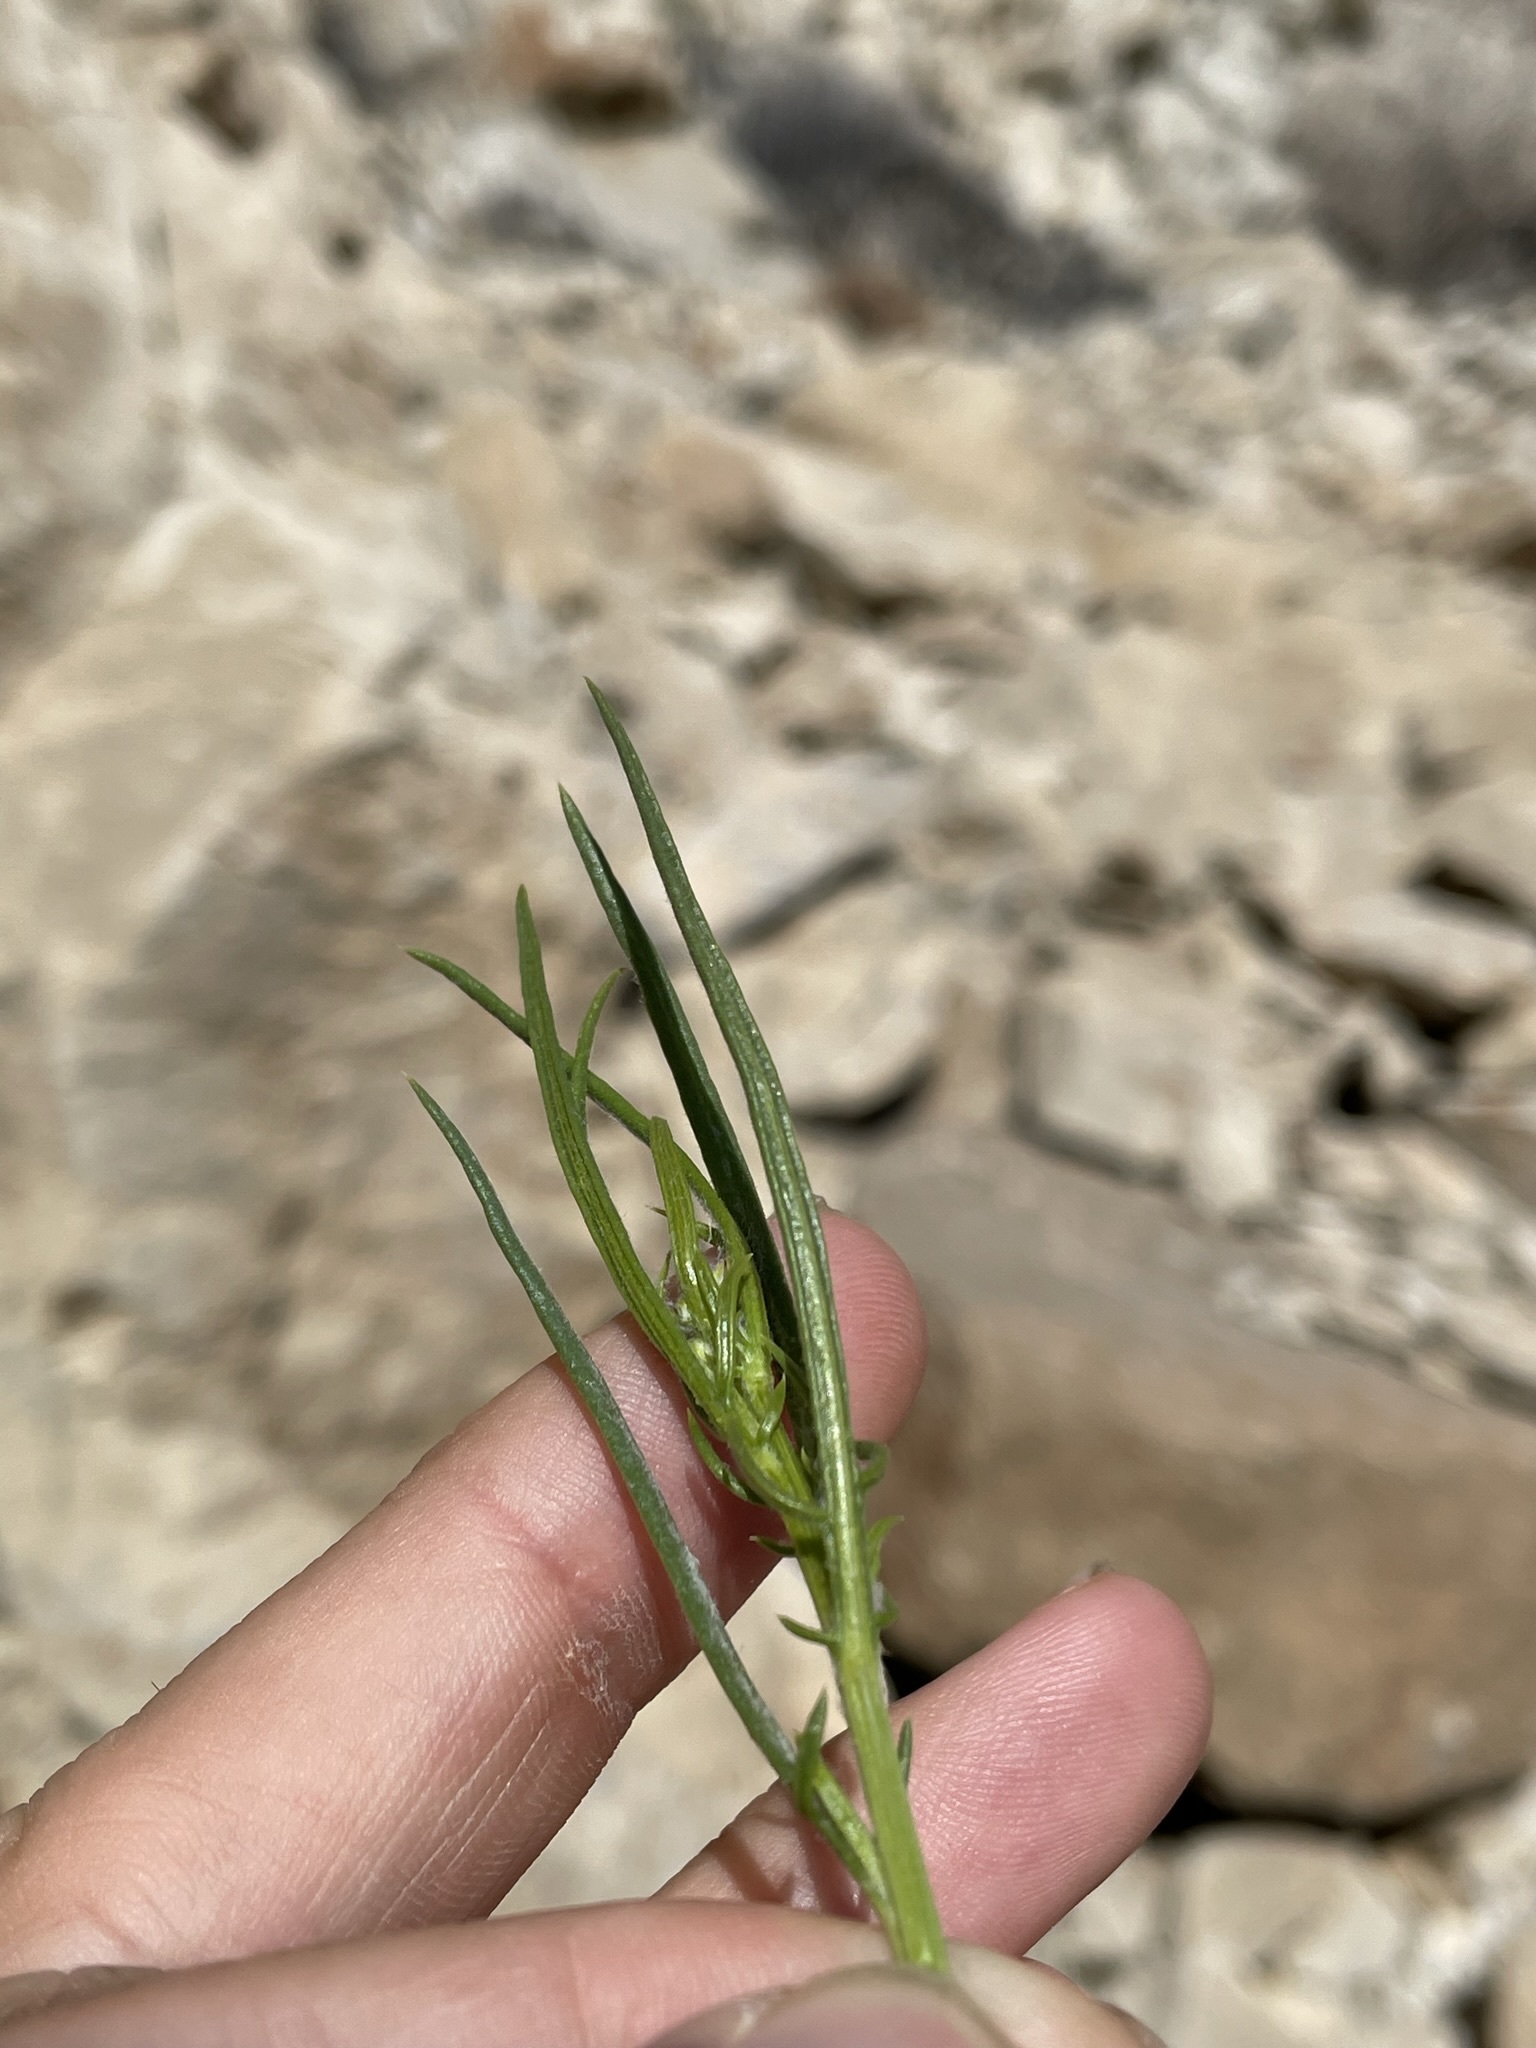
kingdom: Plantae
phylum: Tracheophyta
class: Magnoliopsida
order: Asterales
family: Asteraceae
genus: Senecio
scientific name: Senecio flaccidus
